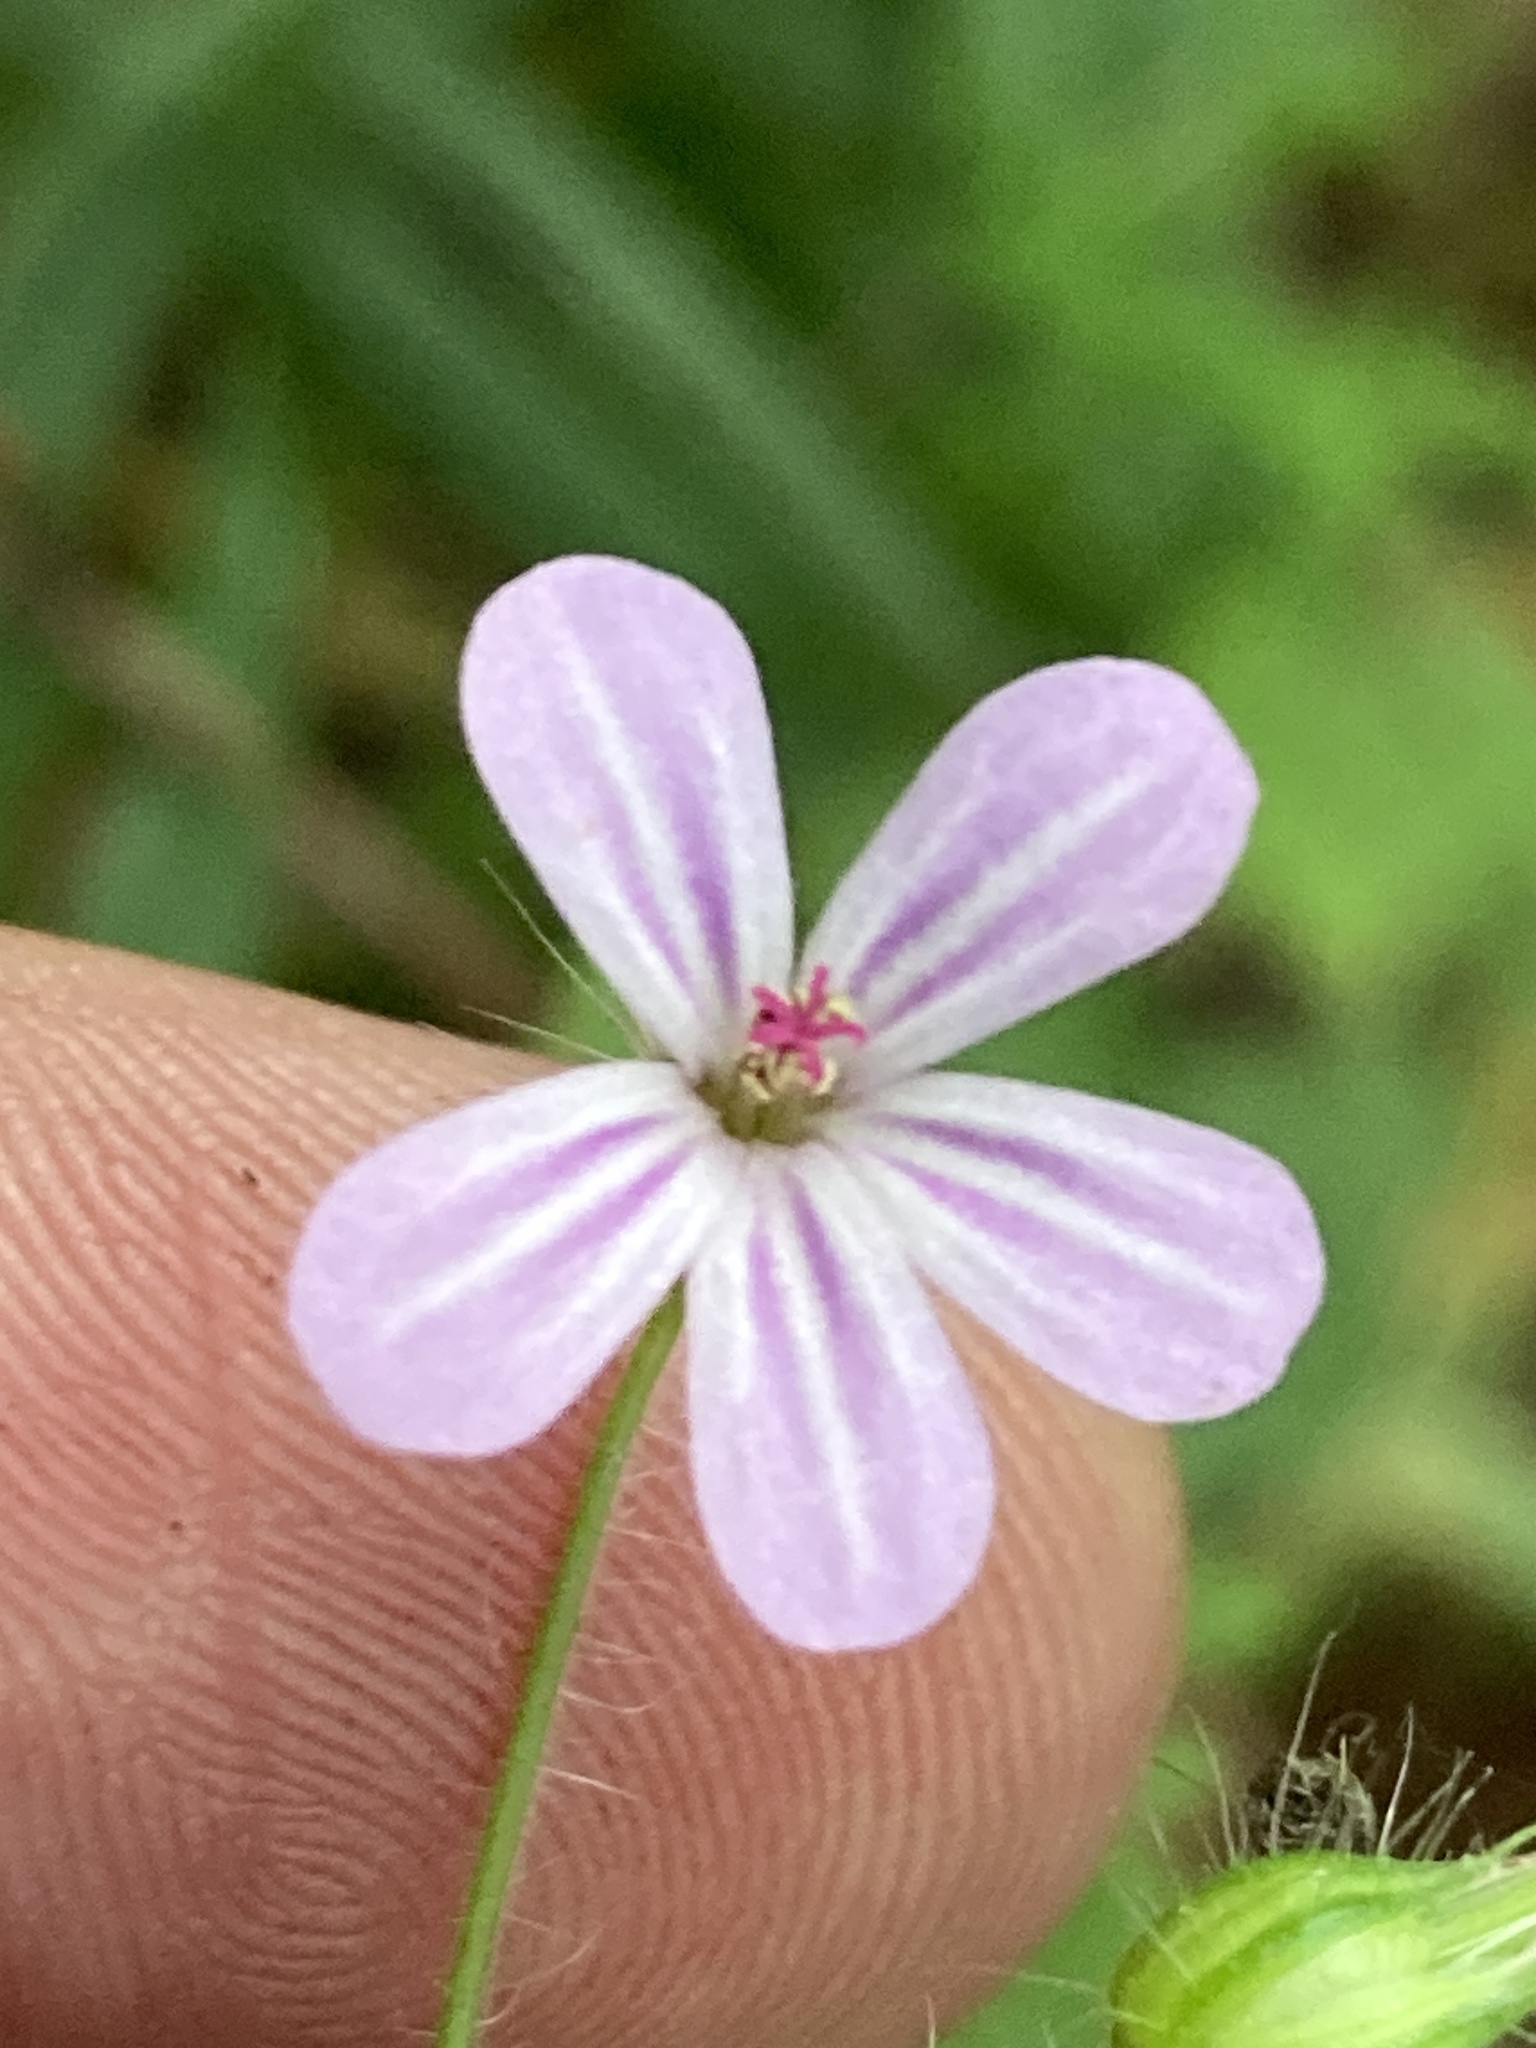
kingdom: Plantae
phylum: Tracheophyta
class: Magnoliopsida
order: Geraniales
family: Geraniaceae
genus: Geranium
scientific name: Geranium robertianum
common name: Herb-robert
